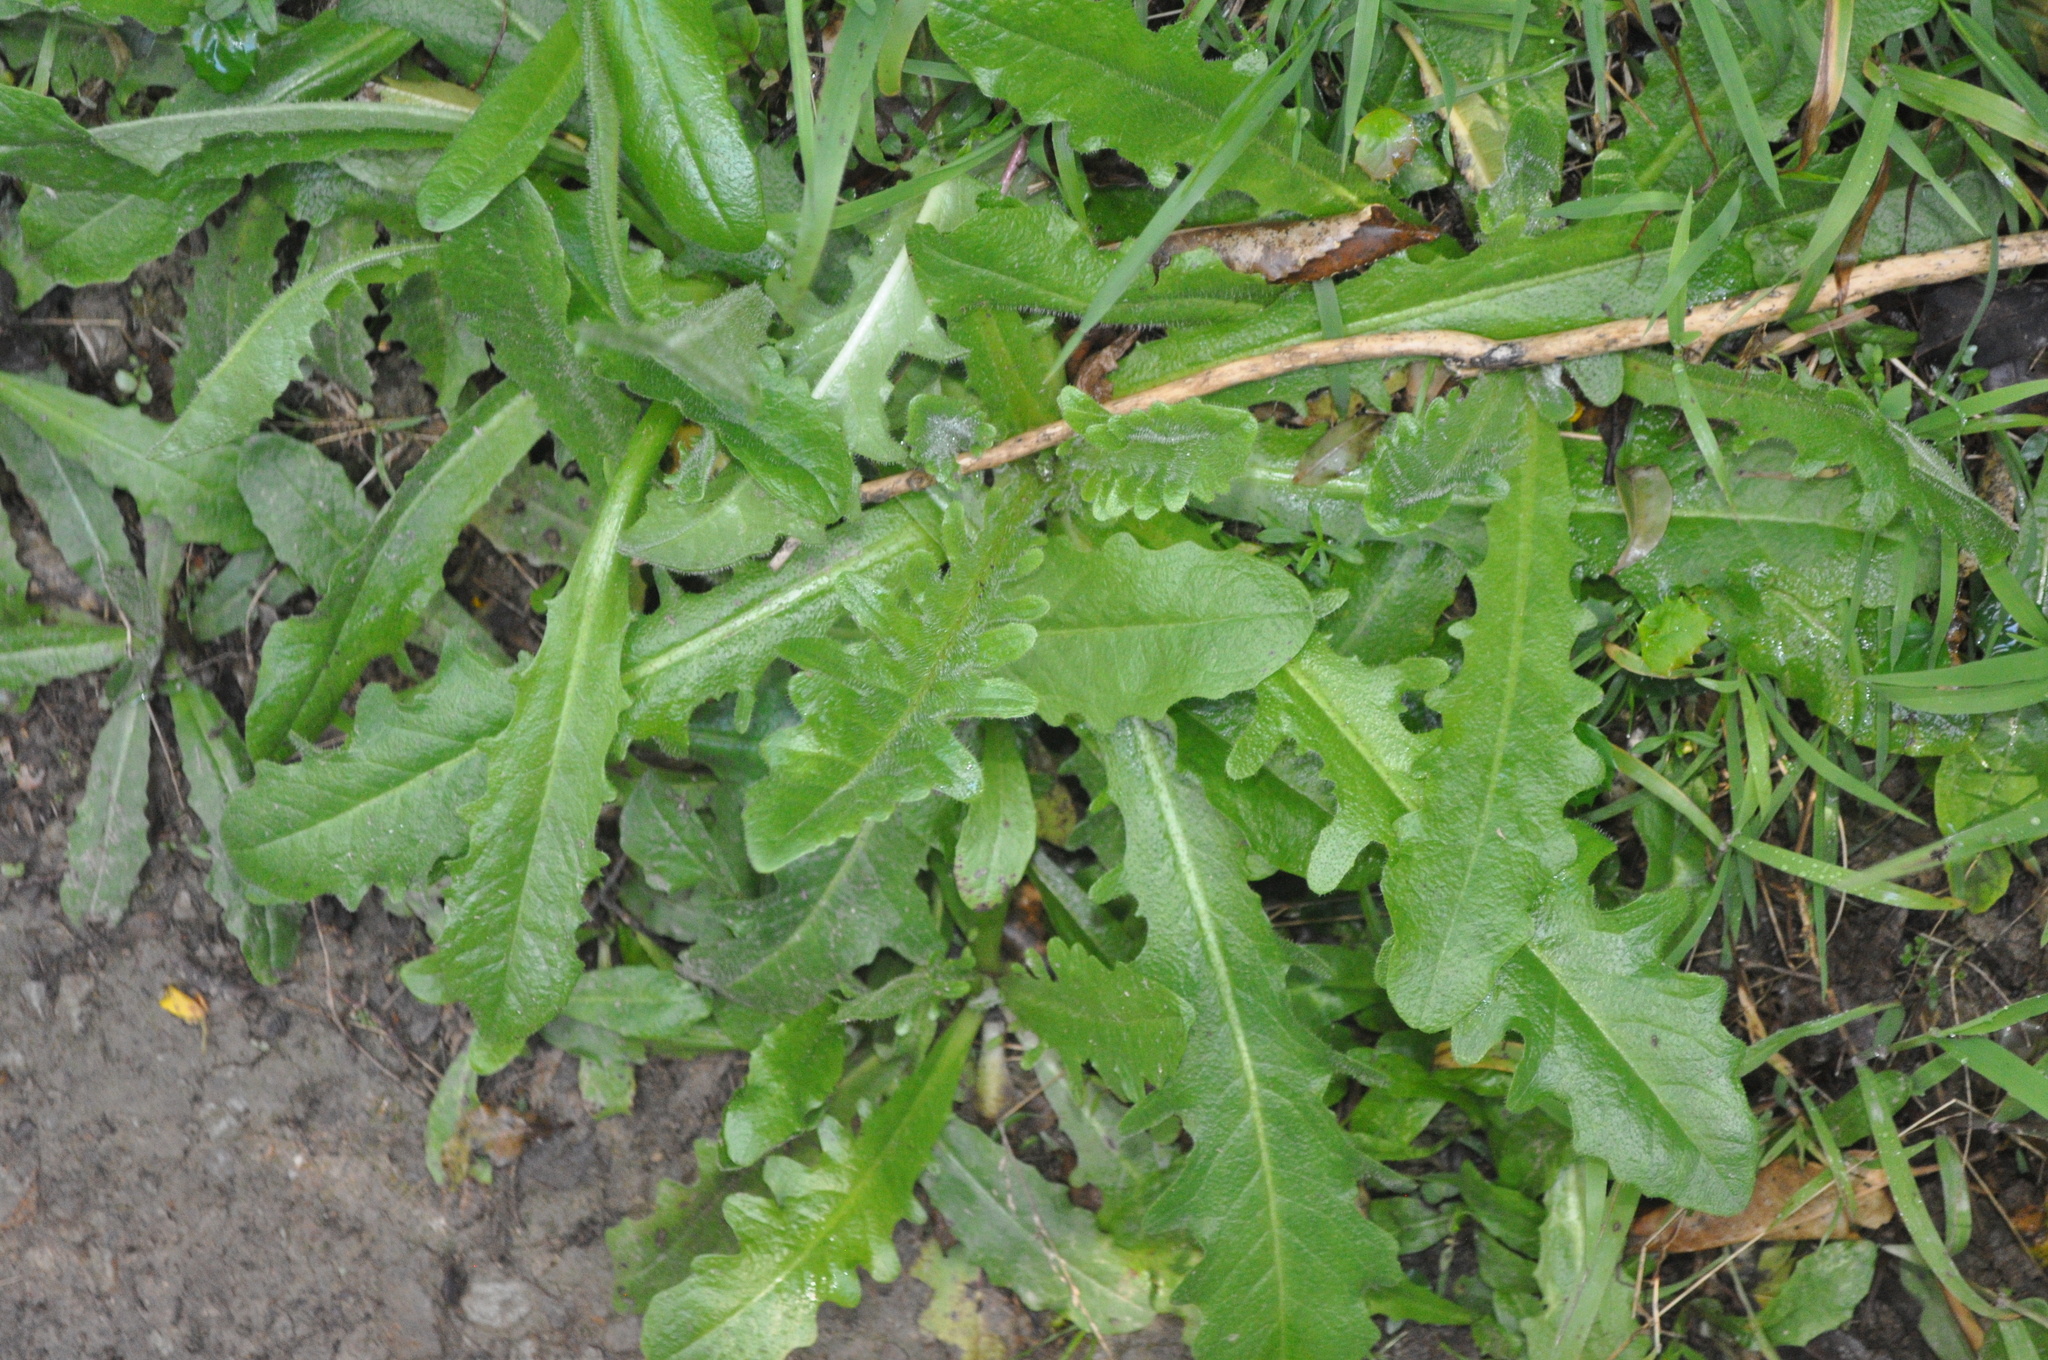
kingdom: Plantae
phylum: Tracheophyta
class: Magnoliopsida
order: Asterales
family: Asteraceae
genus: Hypochaeris
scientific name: Hypochaeris radicata
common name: Flatweed
